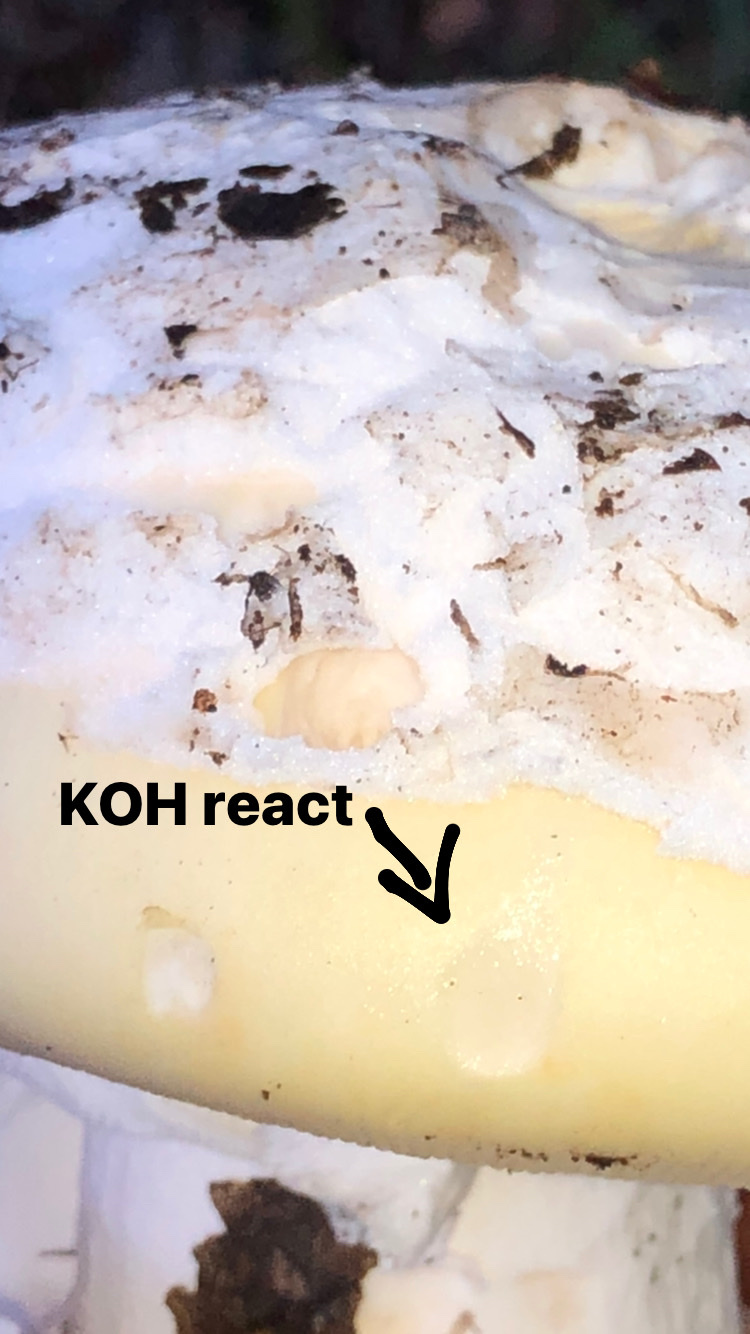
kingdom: Fungi
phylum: Basidiomycota
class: Agaricomycetes
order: Agaricales
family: Amanitaceae
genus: Amanita
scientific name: Amanita vernicoccora
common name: Spring coccora
